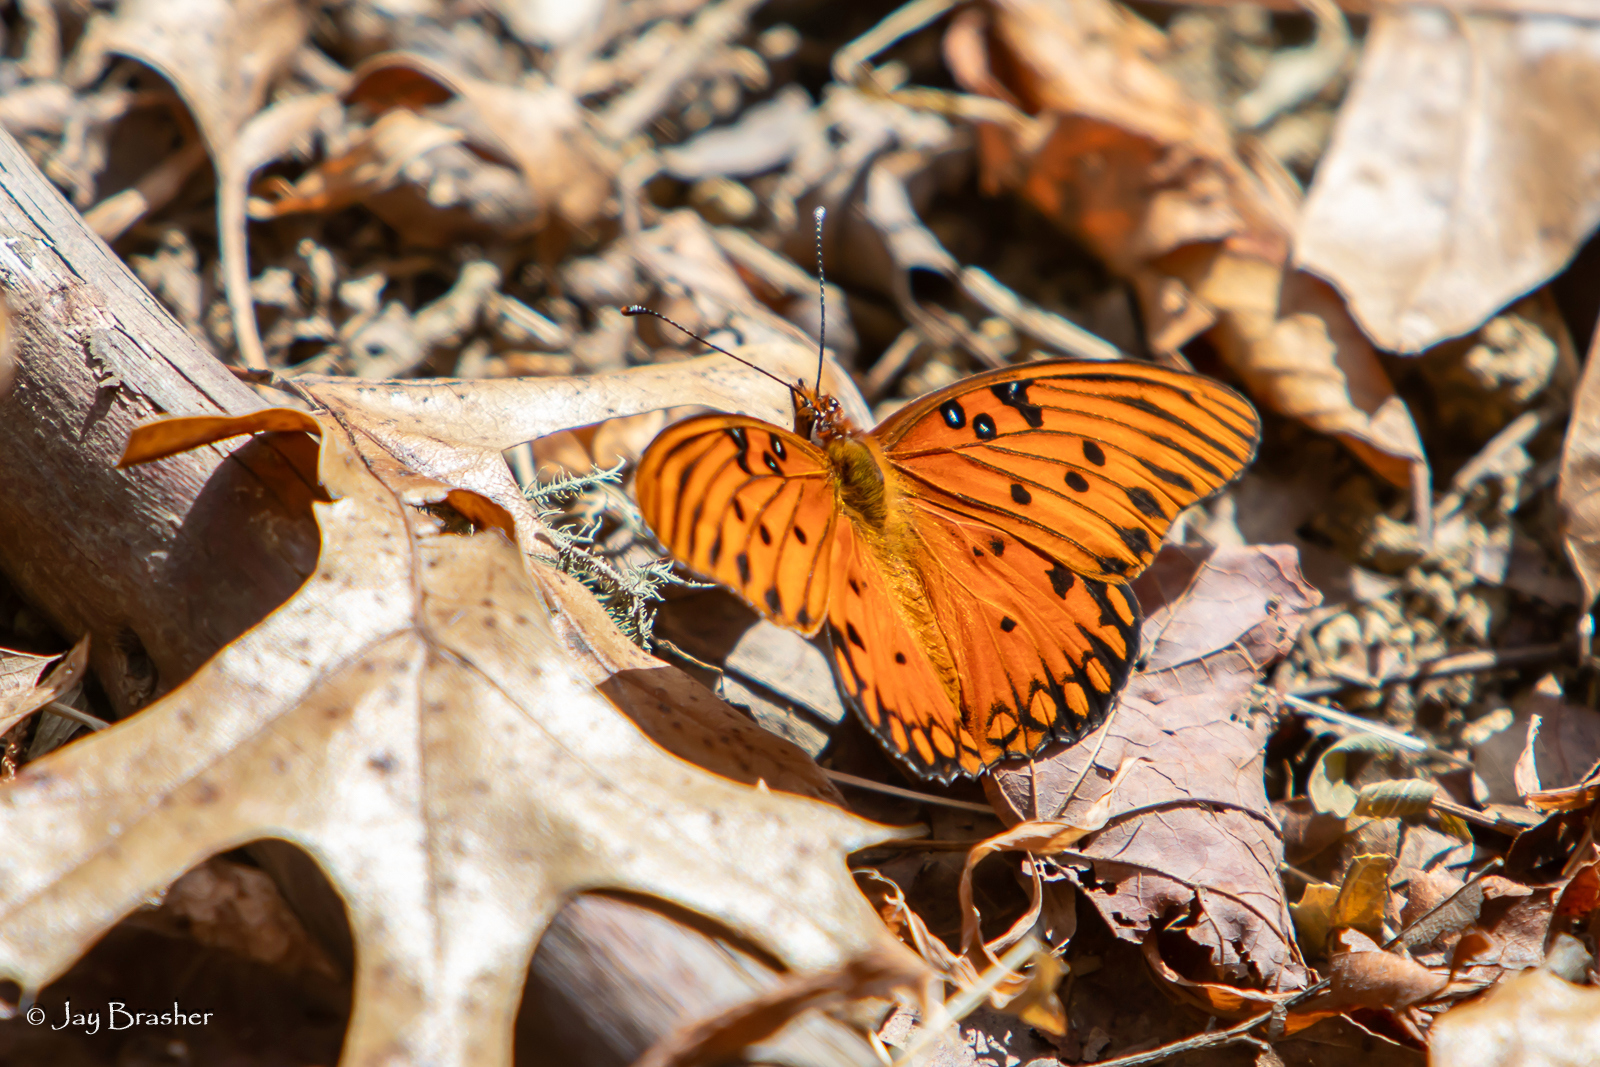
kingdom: Animalia
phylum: Arthropoda
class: Insecta
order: Lepidoptera
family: Nymphalidae
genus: Dione
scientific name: Dione vanillae
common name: Gulf fritillary
